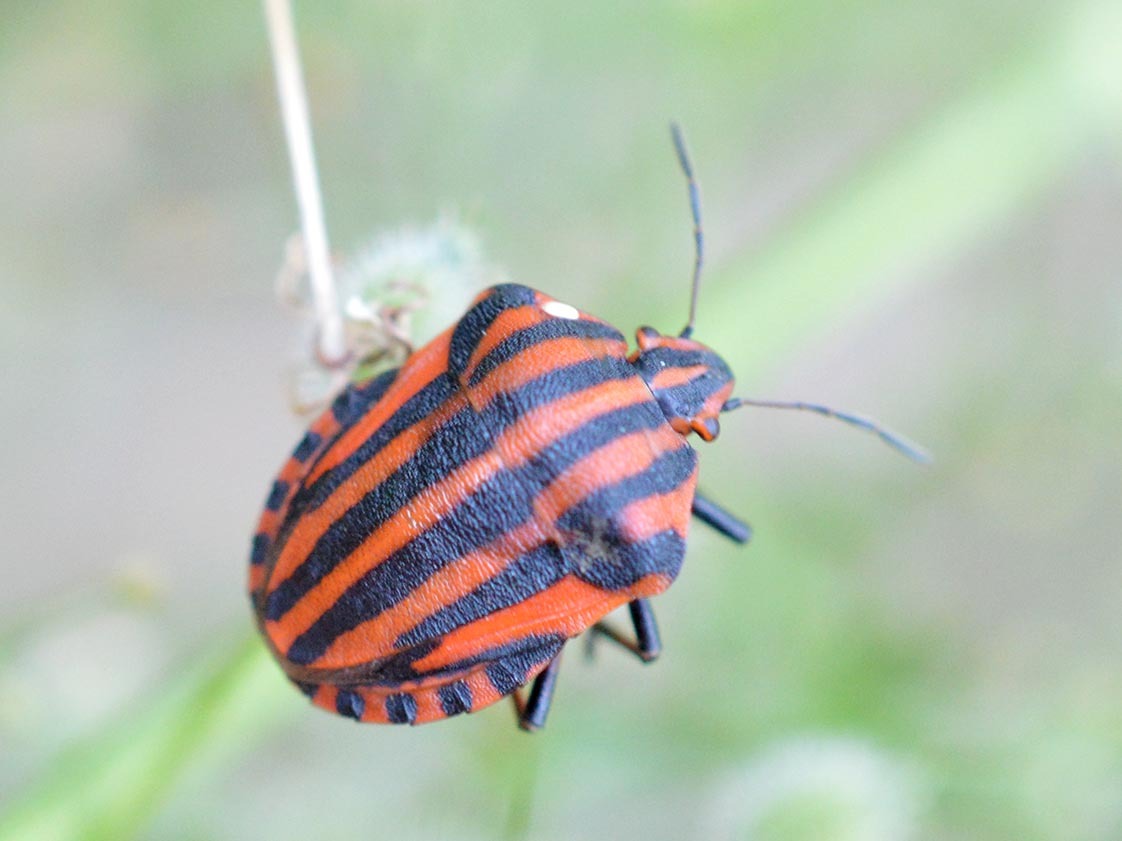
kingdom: Animalia
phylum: Arthropoda
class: Insecta
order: Hemiptera
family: Pentatomidae
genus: Graphosoma
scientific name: Graphosoma italicum
